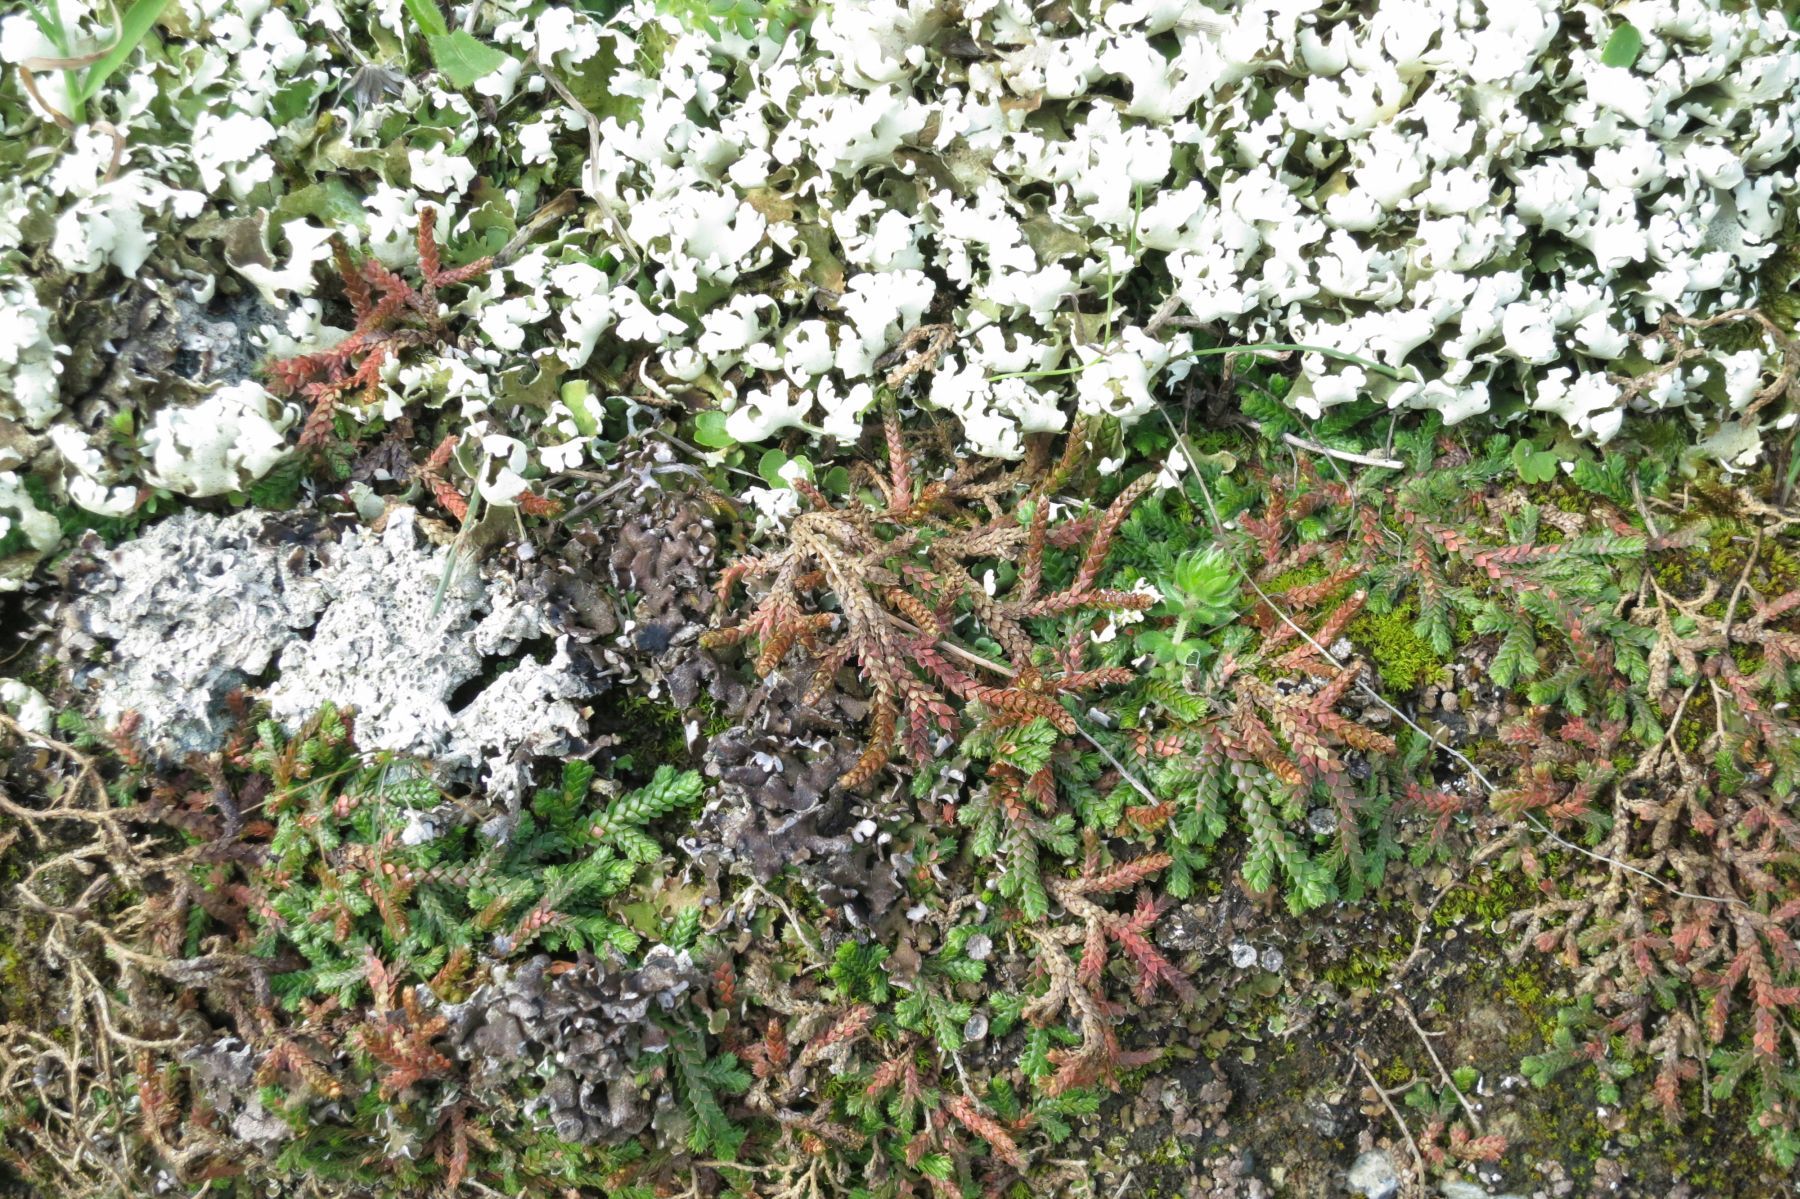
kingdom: Plantae
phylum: Tracheophyta
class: Lycopodiopsida
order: Selaginellales
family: Selaginellaceae
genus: Selaginella
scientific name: Selaginella denticulata
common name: Toothed-leaved clubmoss
